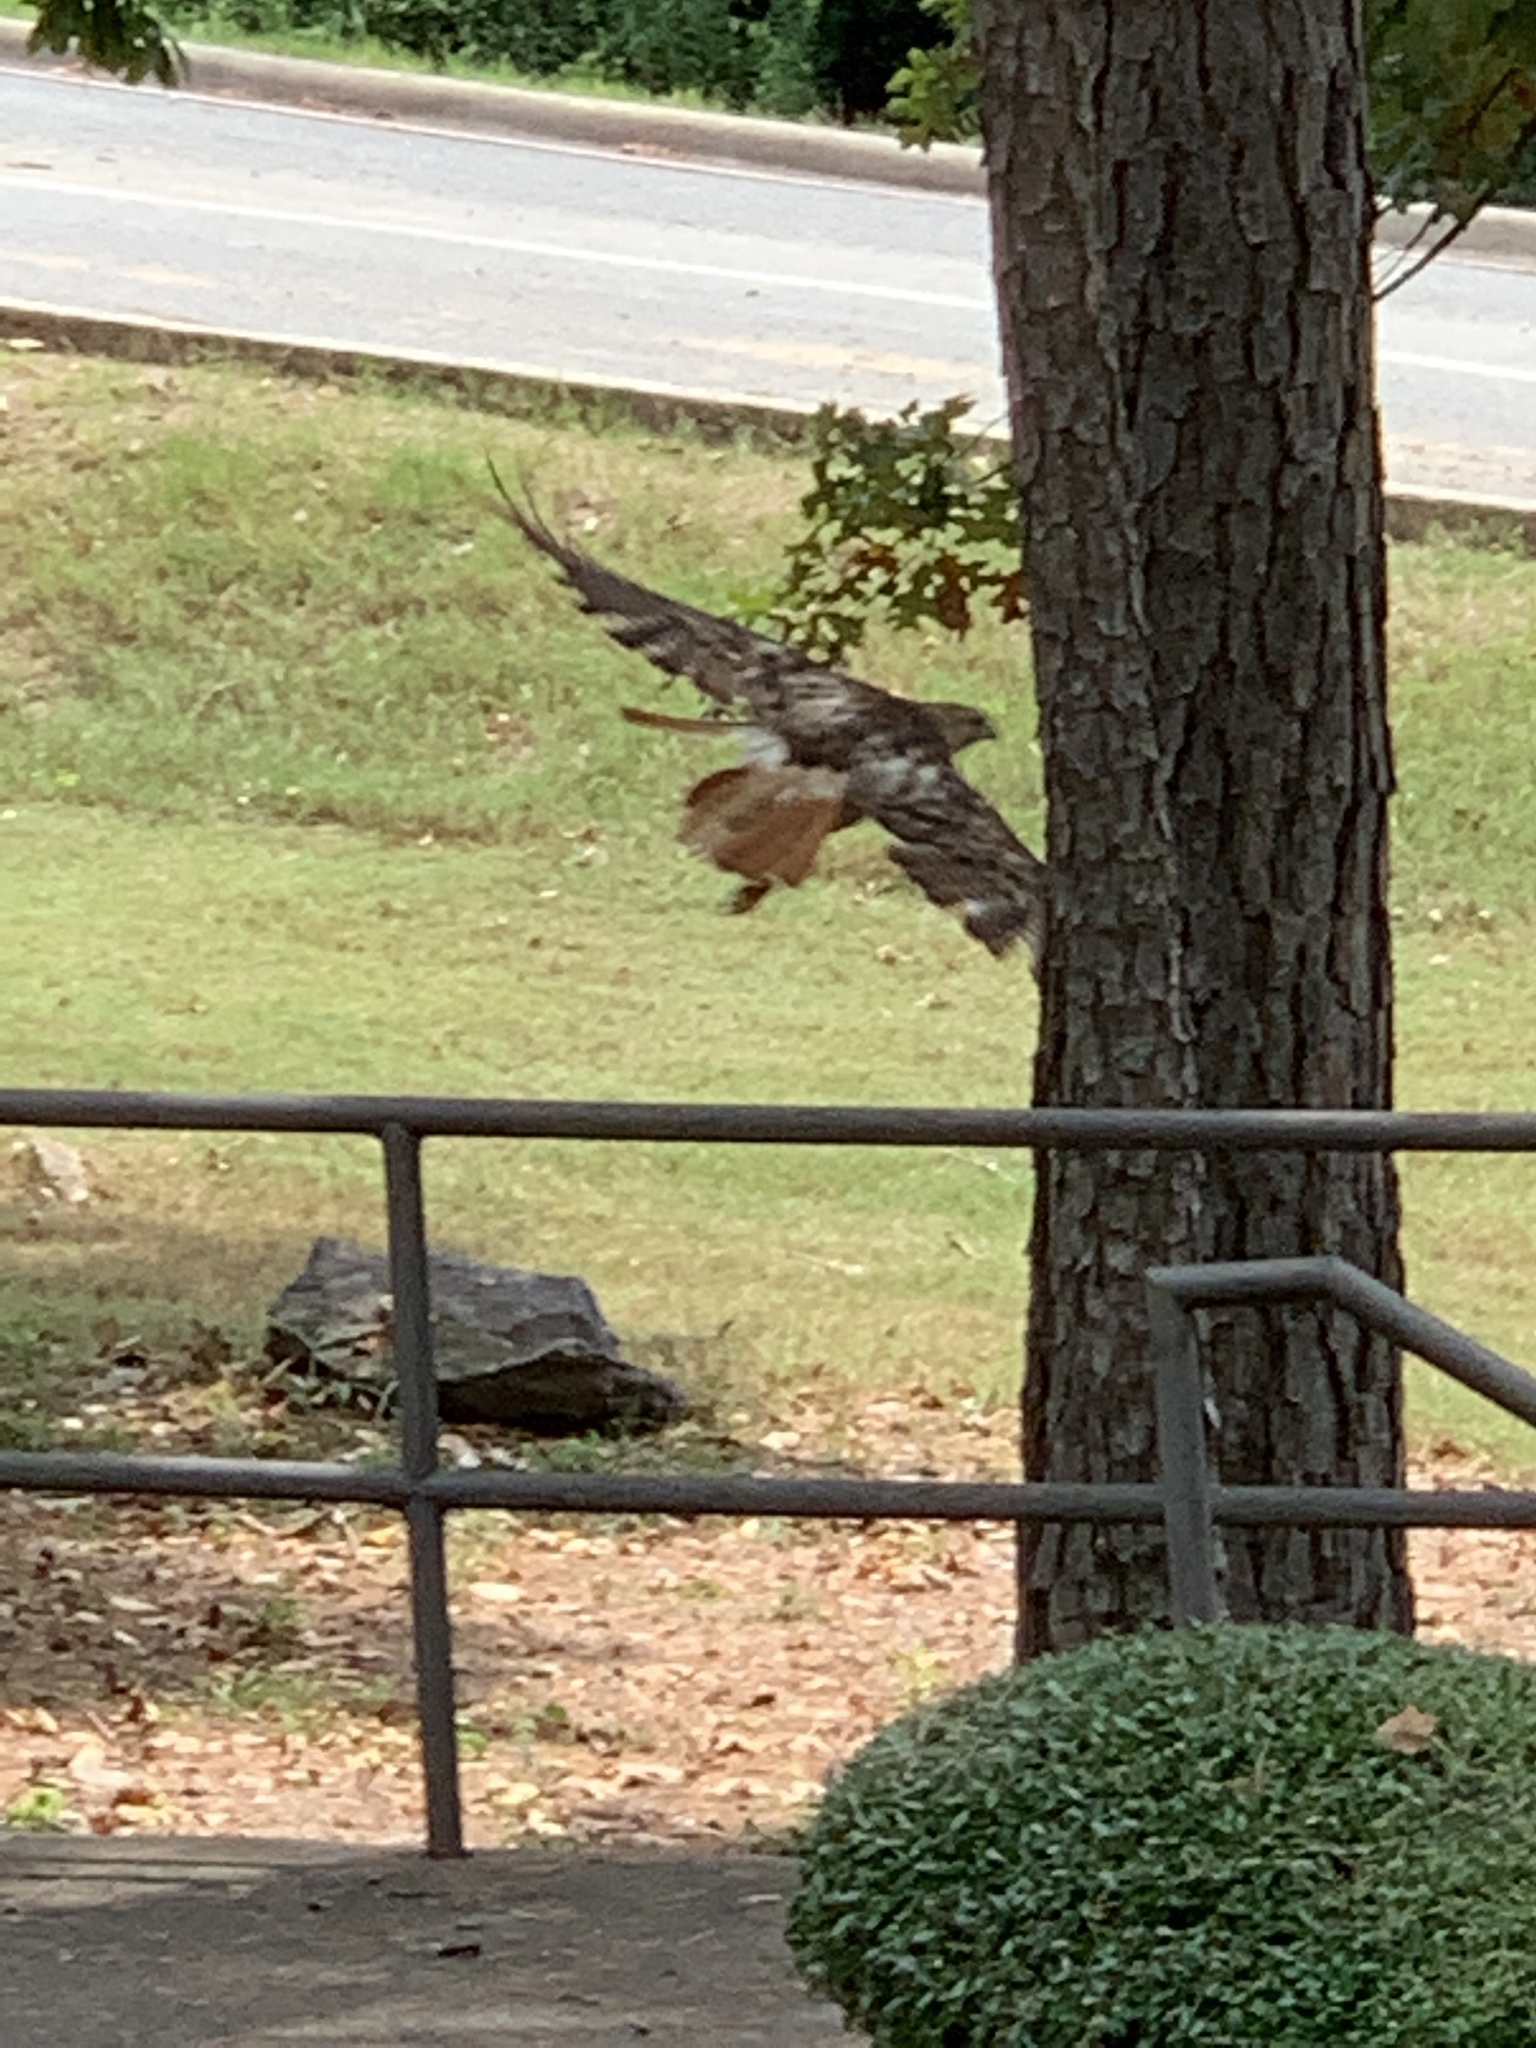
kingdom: Animalia
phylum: Chordata
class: Aves
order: Accipitriformes
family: Accipitridae
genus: Buteo
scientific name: Buteo jamaicensis
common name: Red-tailed hawk
